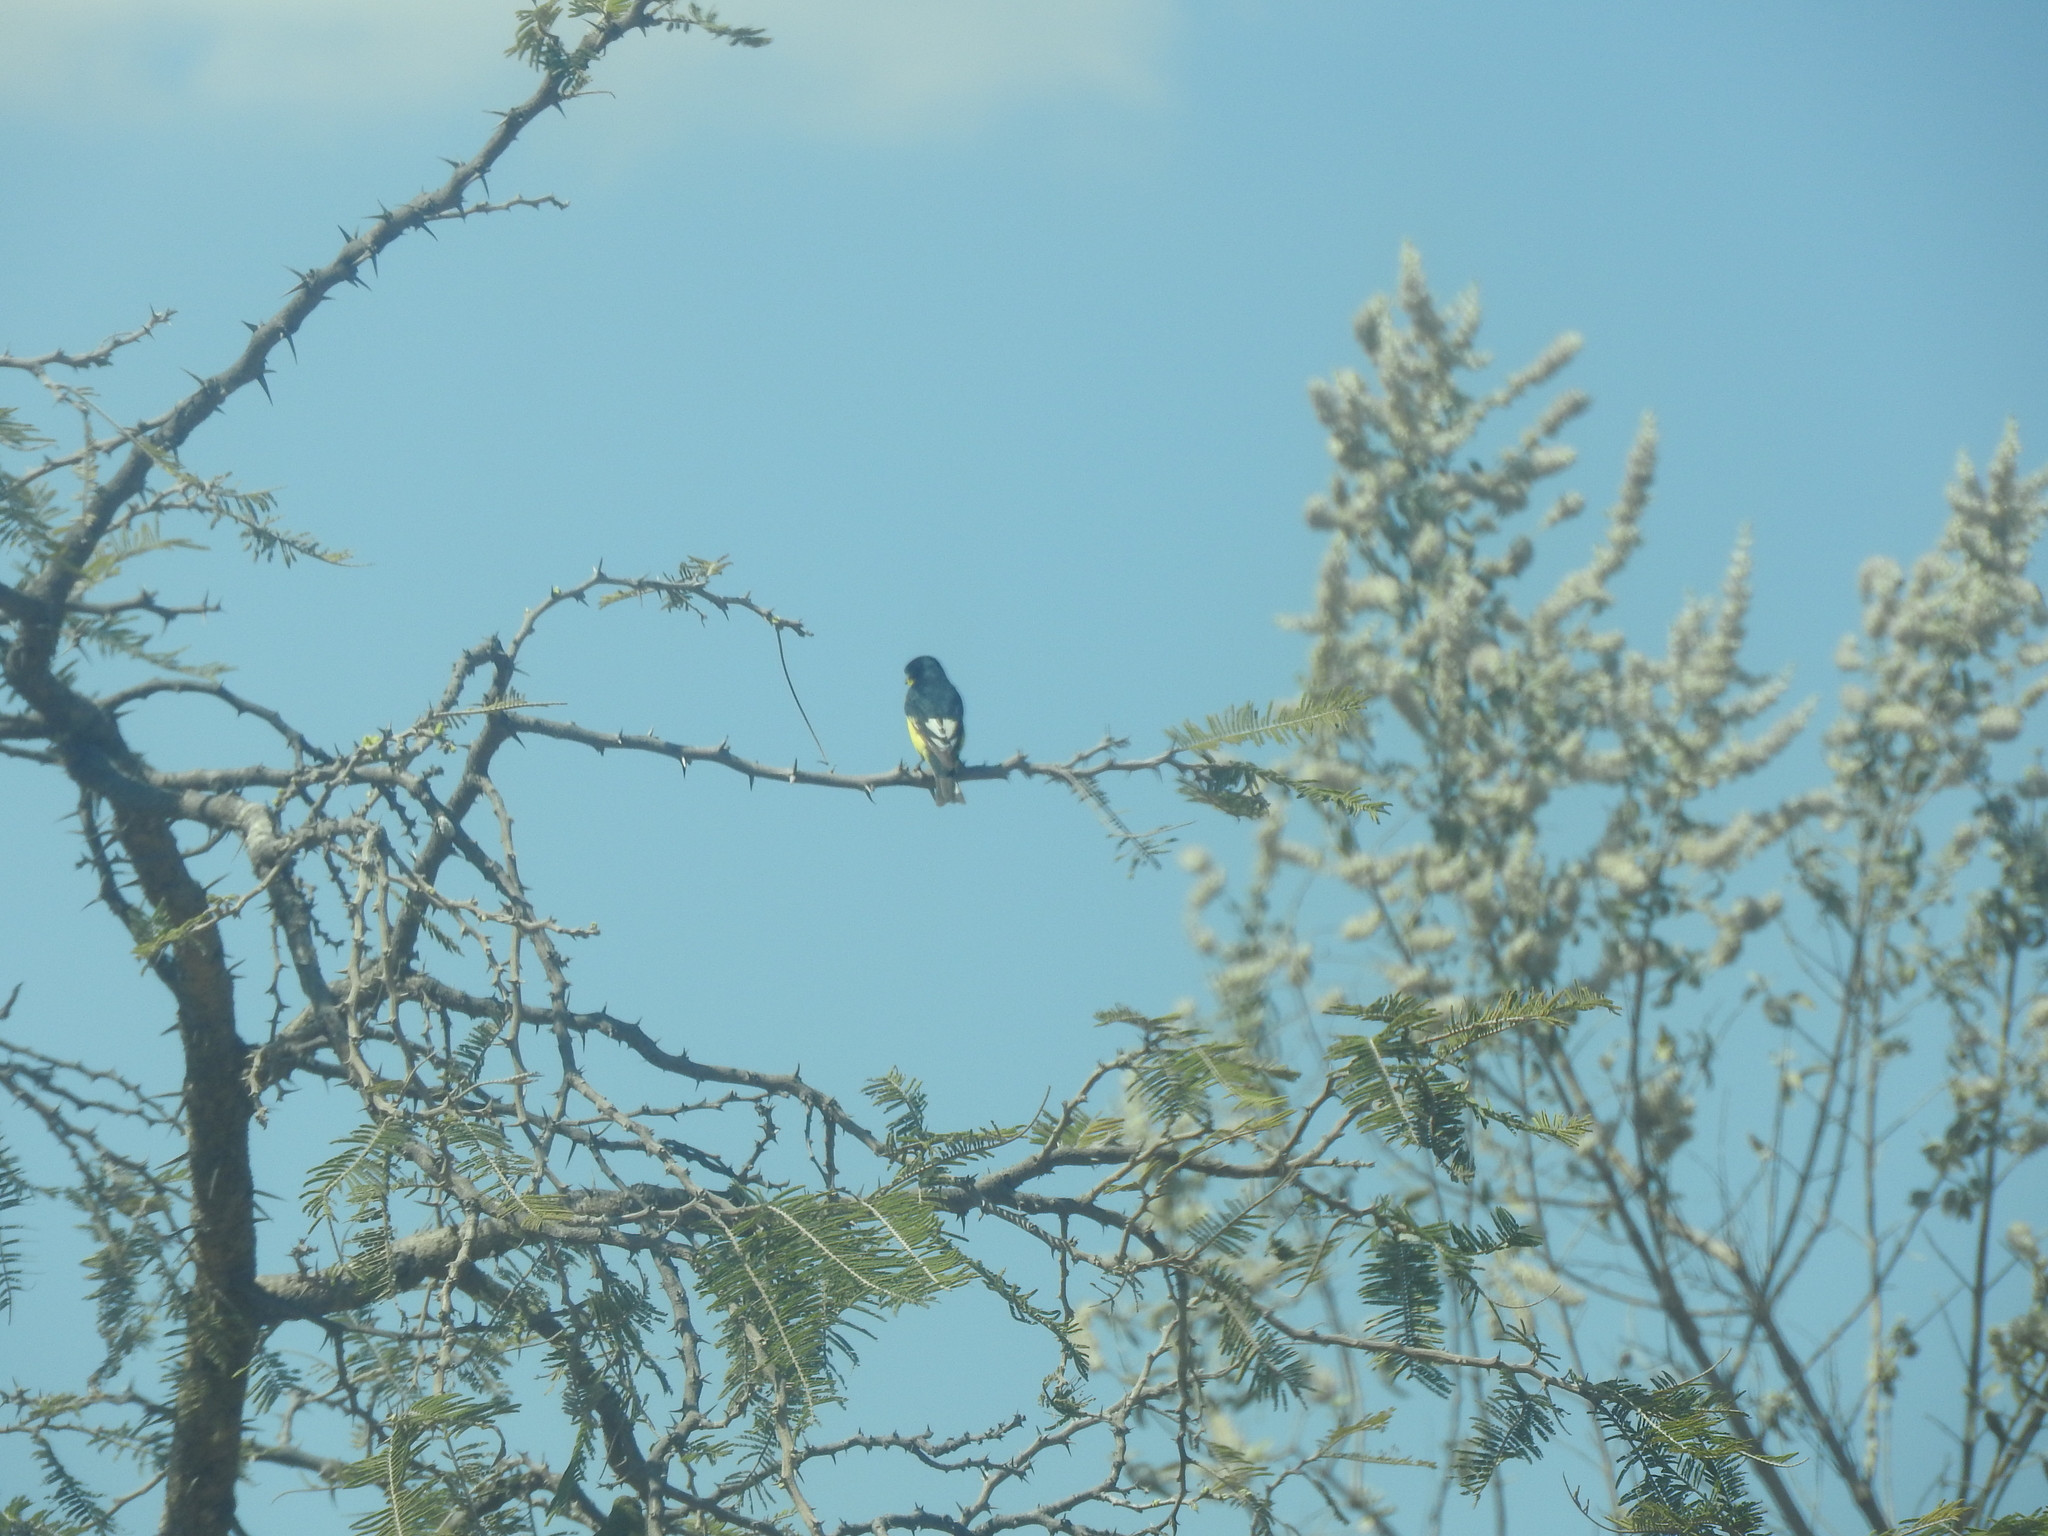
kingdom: Animalia
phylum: Chordata
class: Aves
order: Passeriformes
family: Fringillidae
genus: Spinus
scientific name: Spinus psaltria
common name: Lesser goldfinch
